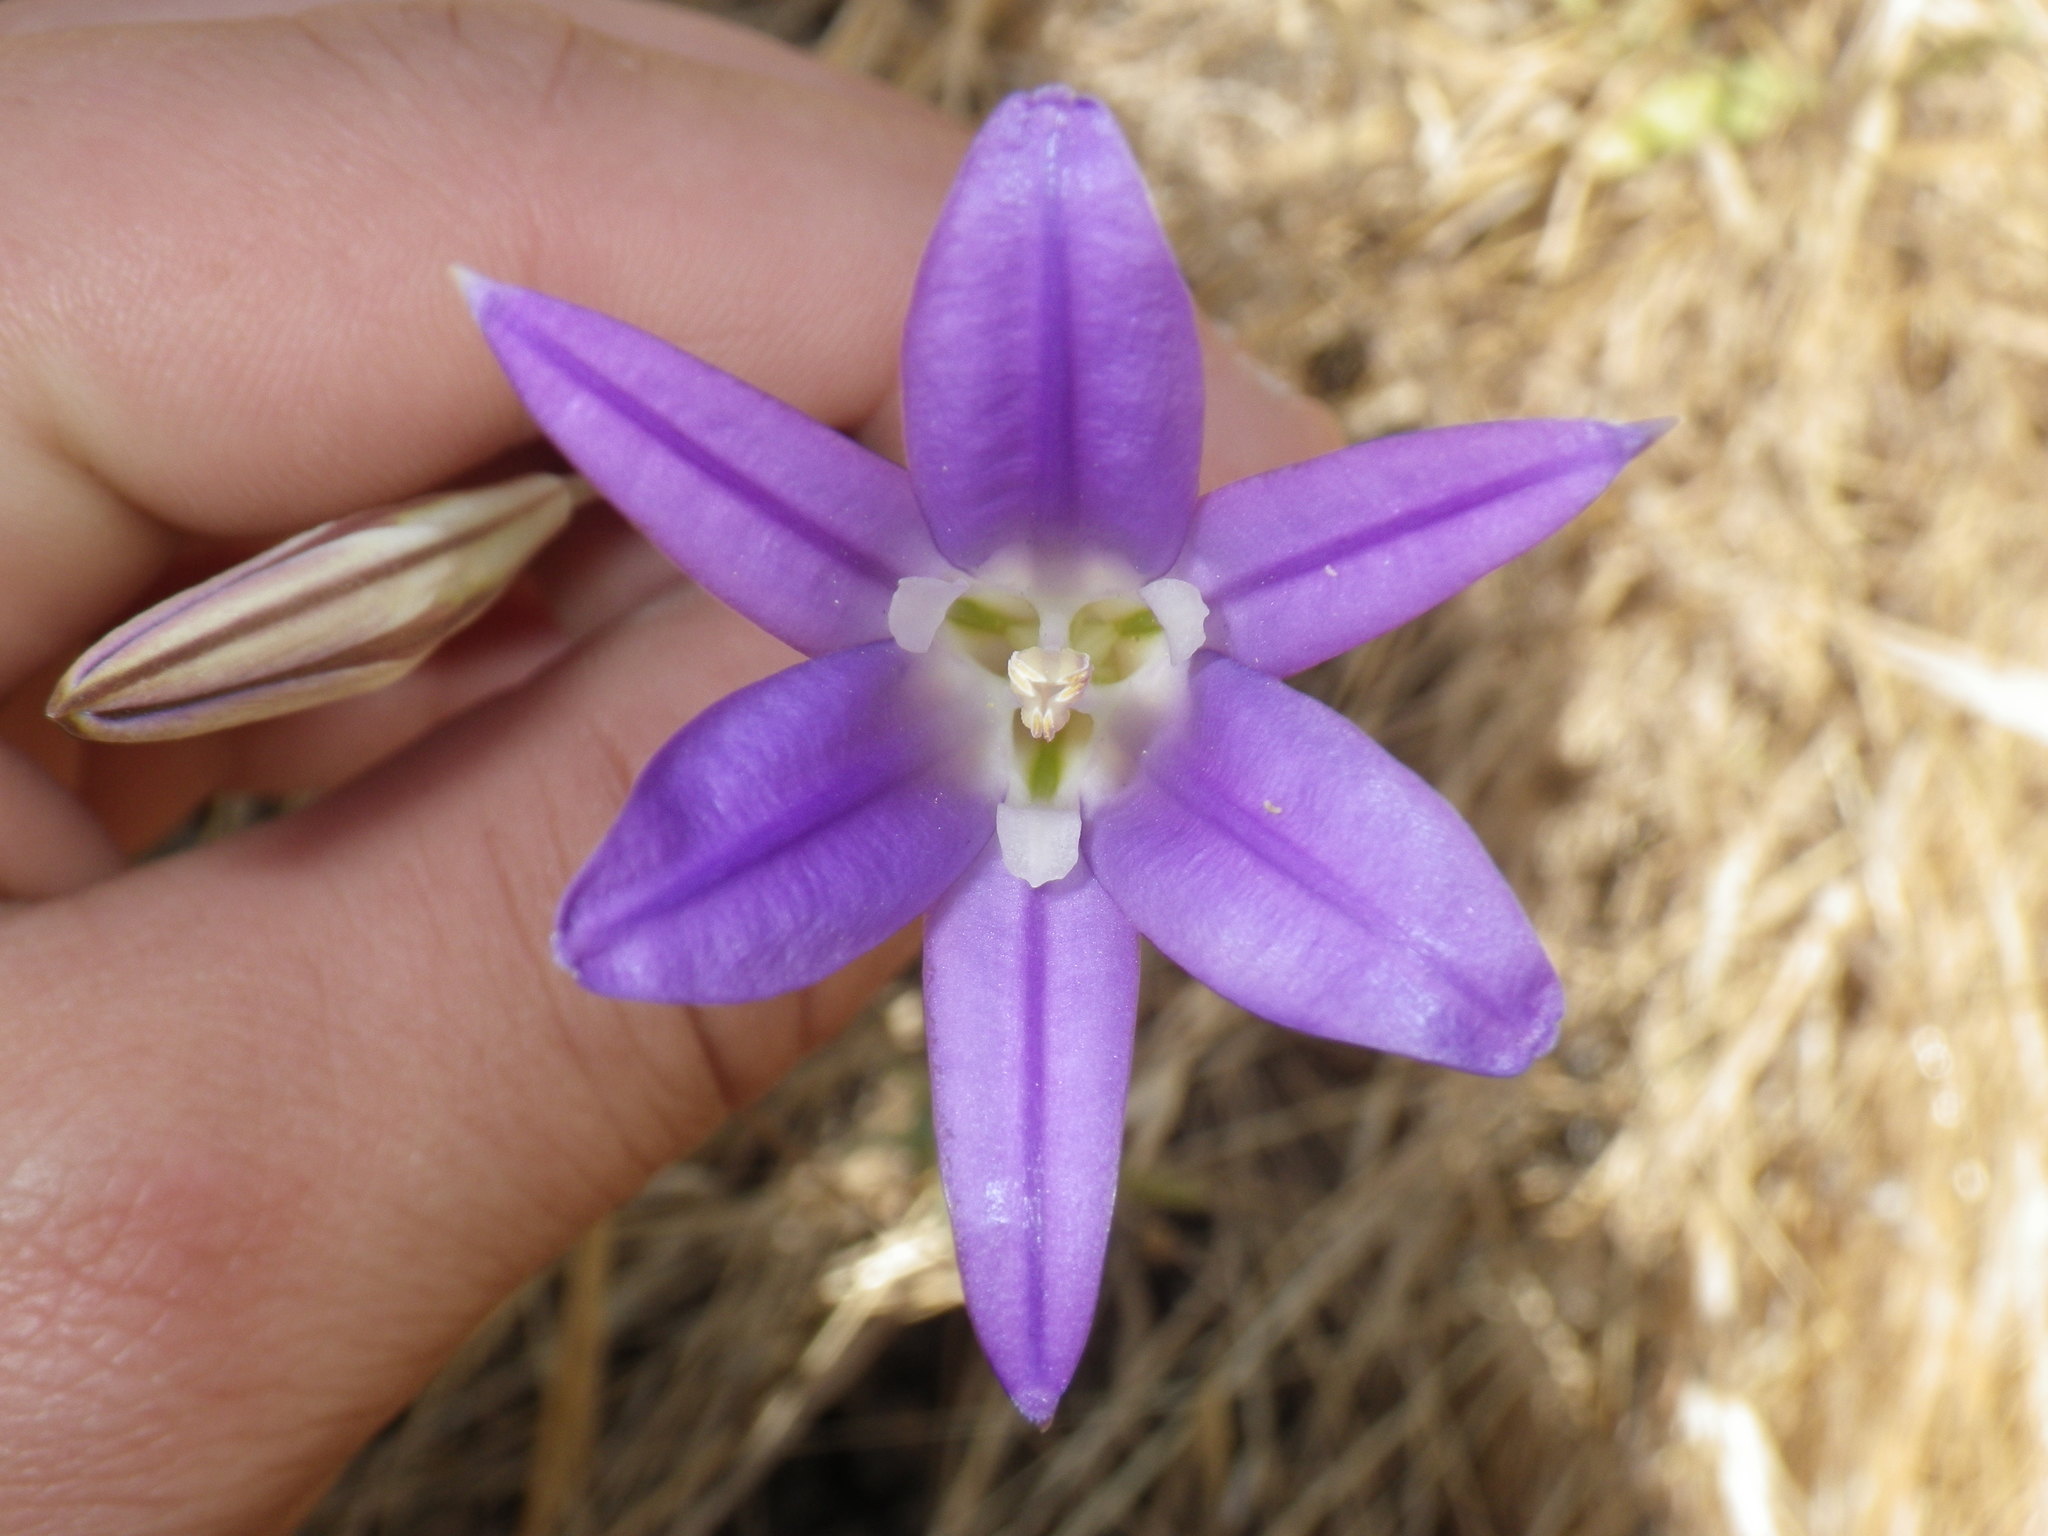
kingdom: Plantae
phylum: Tracheophyta
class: Liliopsida
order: Asparagales
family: Asparagaceae
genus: Brodiaea
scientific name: Brodiaea elegans
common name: Elegant cluster-lily
